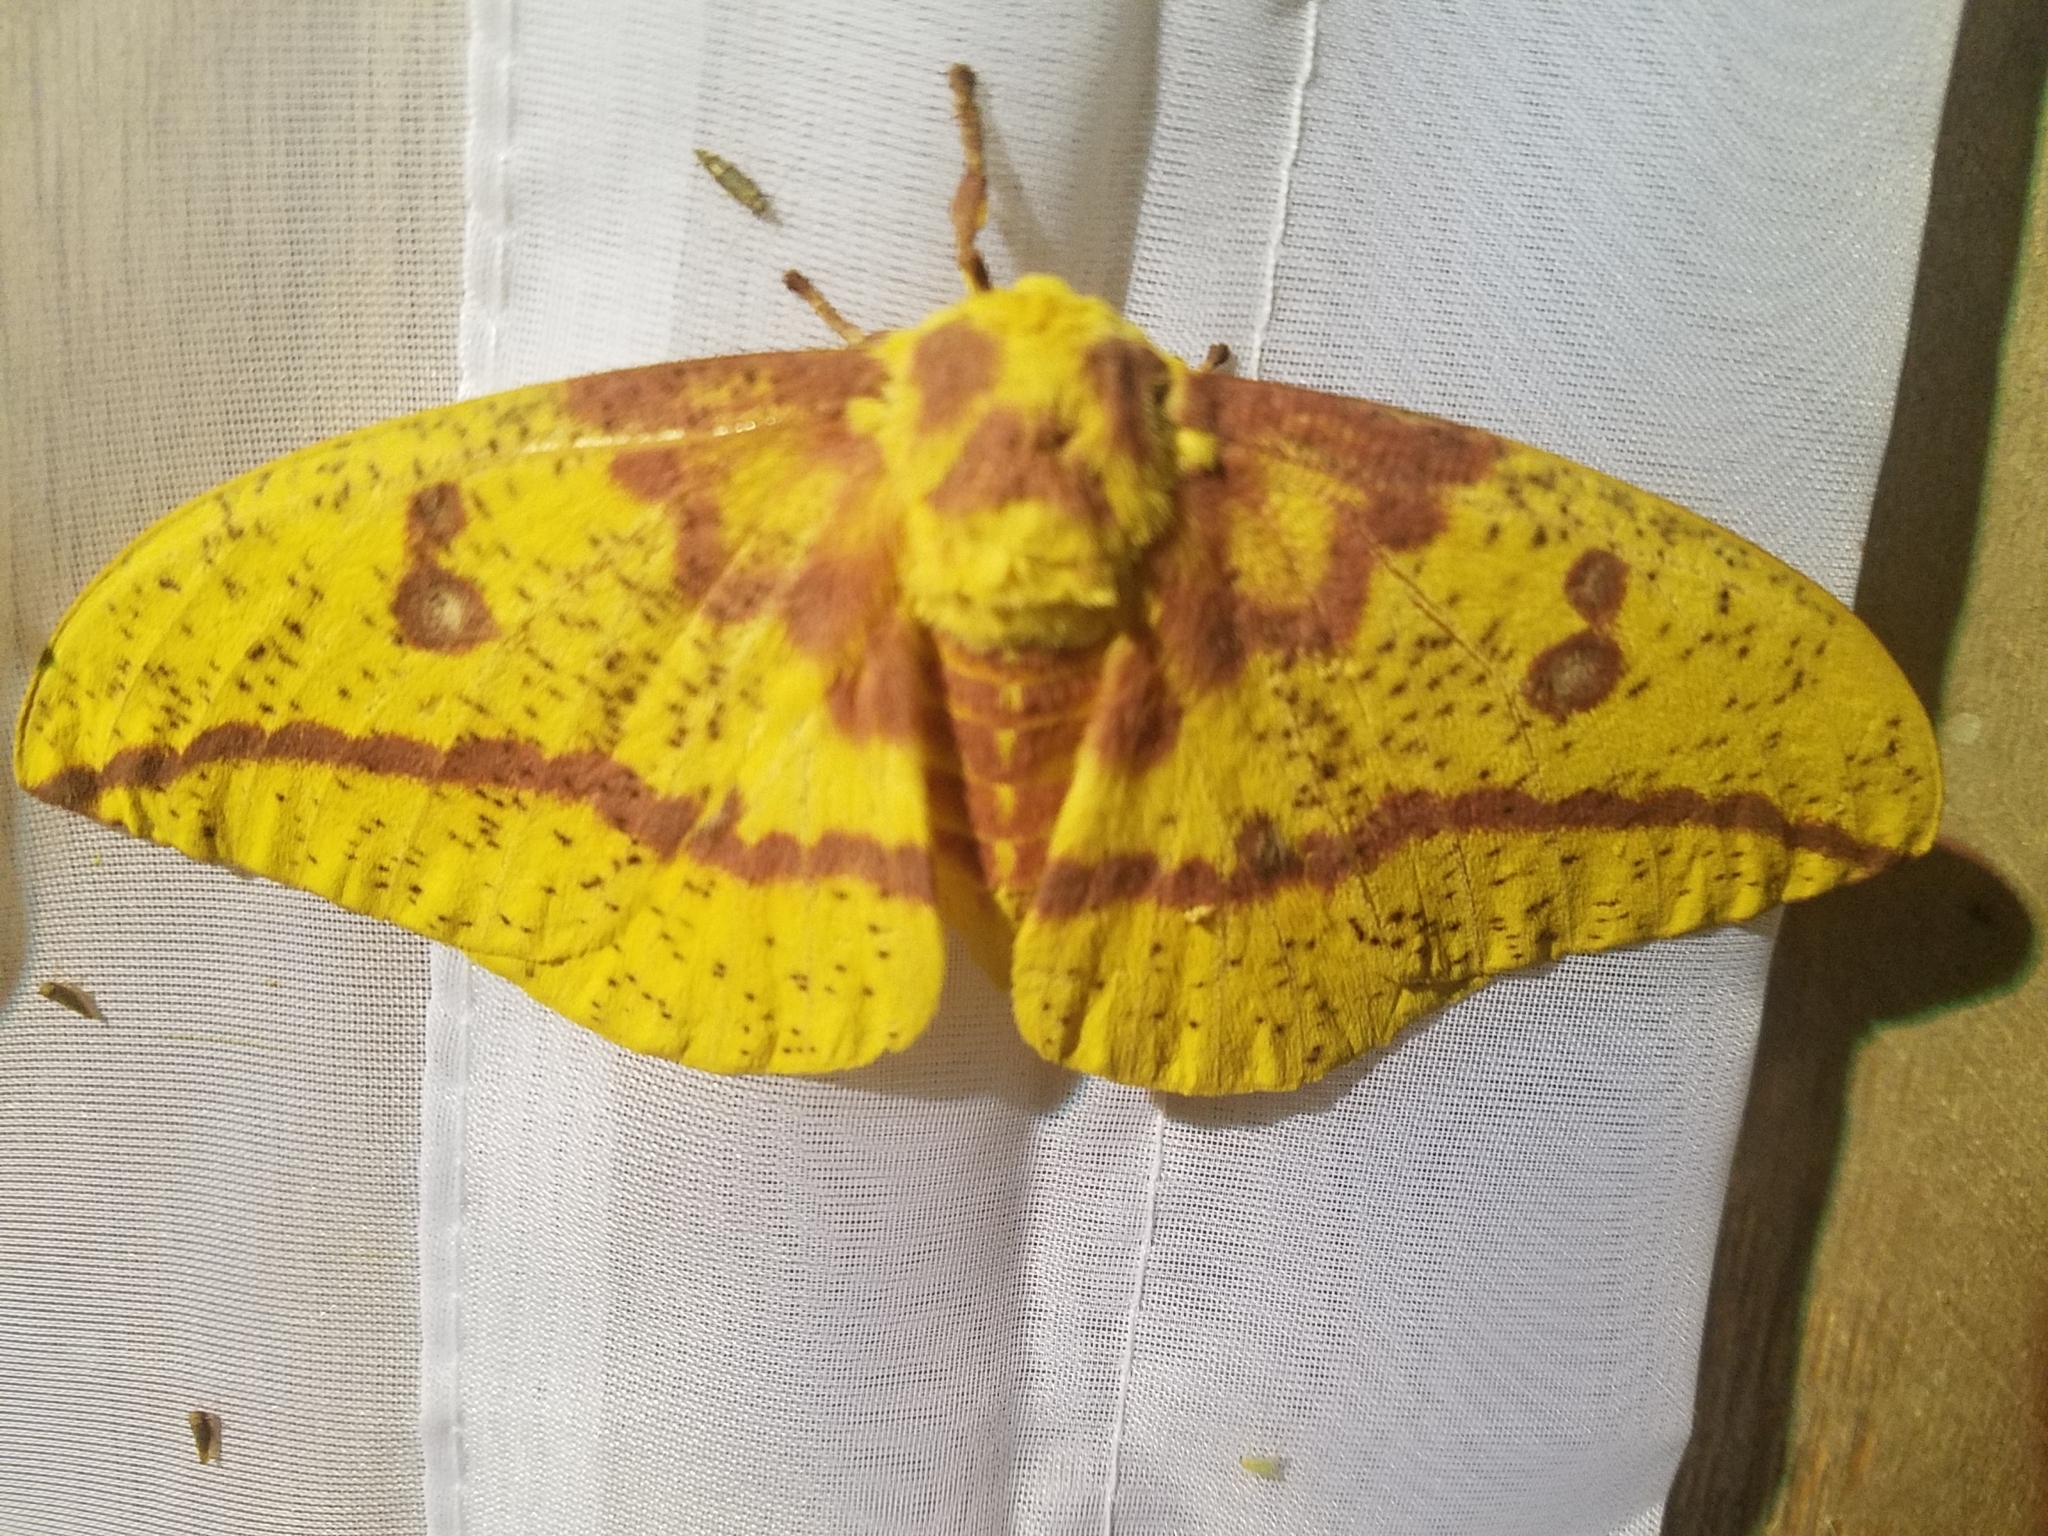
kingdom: Animalia
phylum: Arthropoda
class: Insecta
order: Lepidoptera
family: Saturniidae
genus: Eacles
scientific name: Eacles imperialis
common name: Imperial moth
